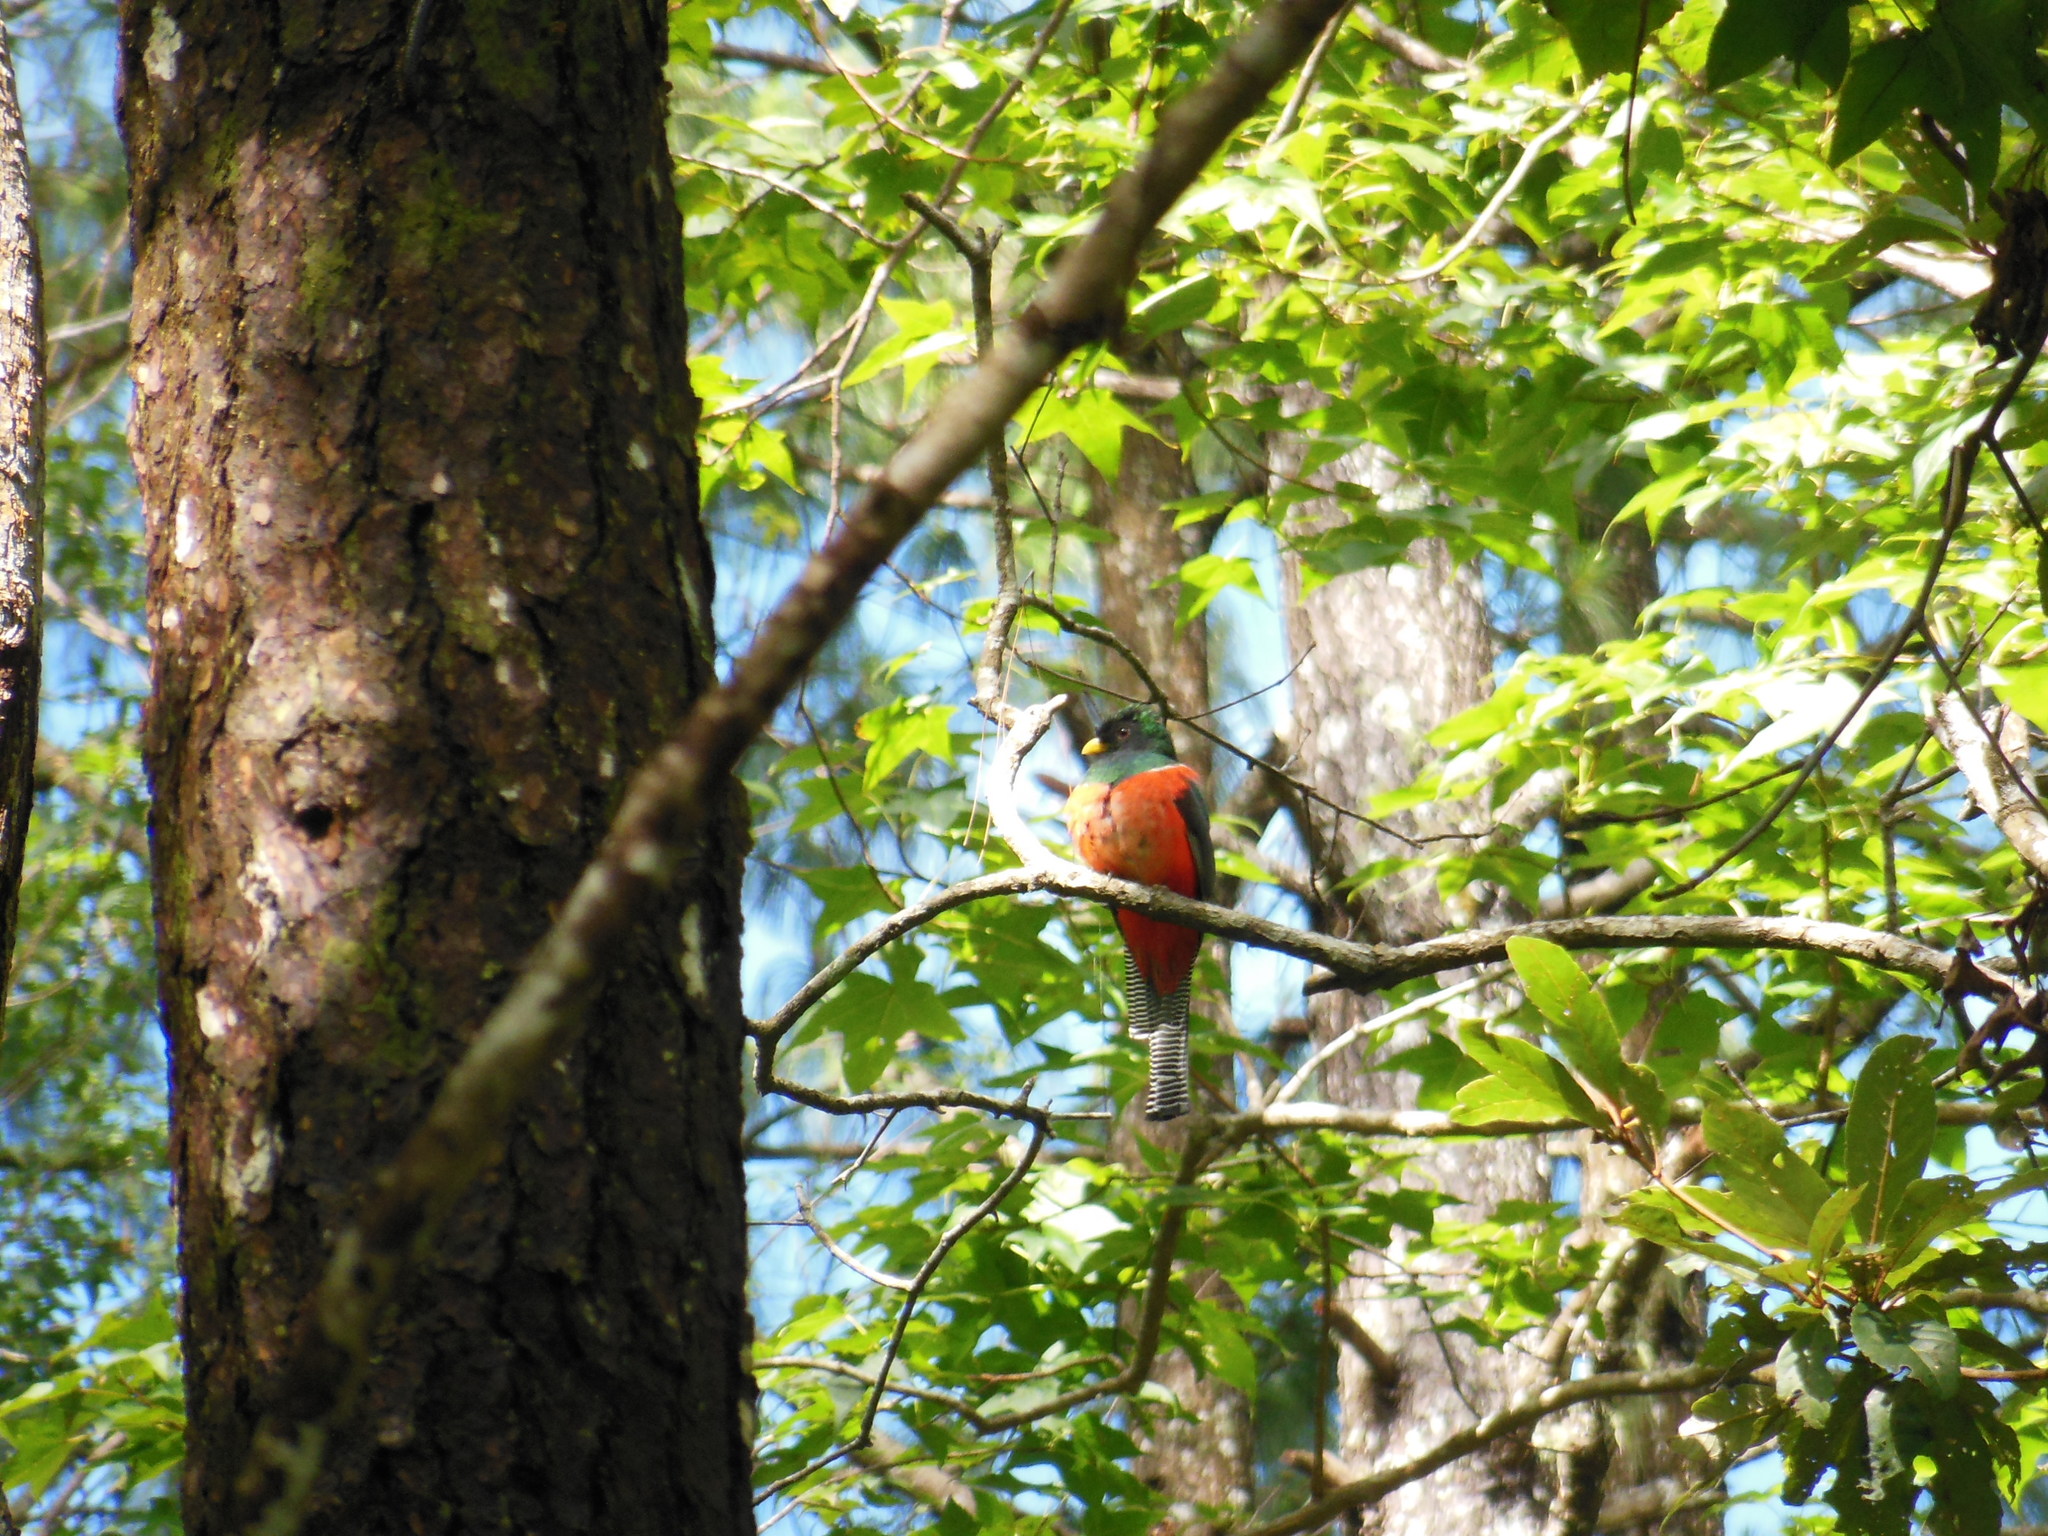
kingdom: Animalia
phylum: Chordata
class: Aves
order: Trogoniformes
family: Trogonidae
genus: Trogon
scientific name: Trogon collaris
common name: Collared trogon
